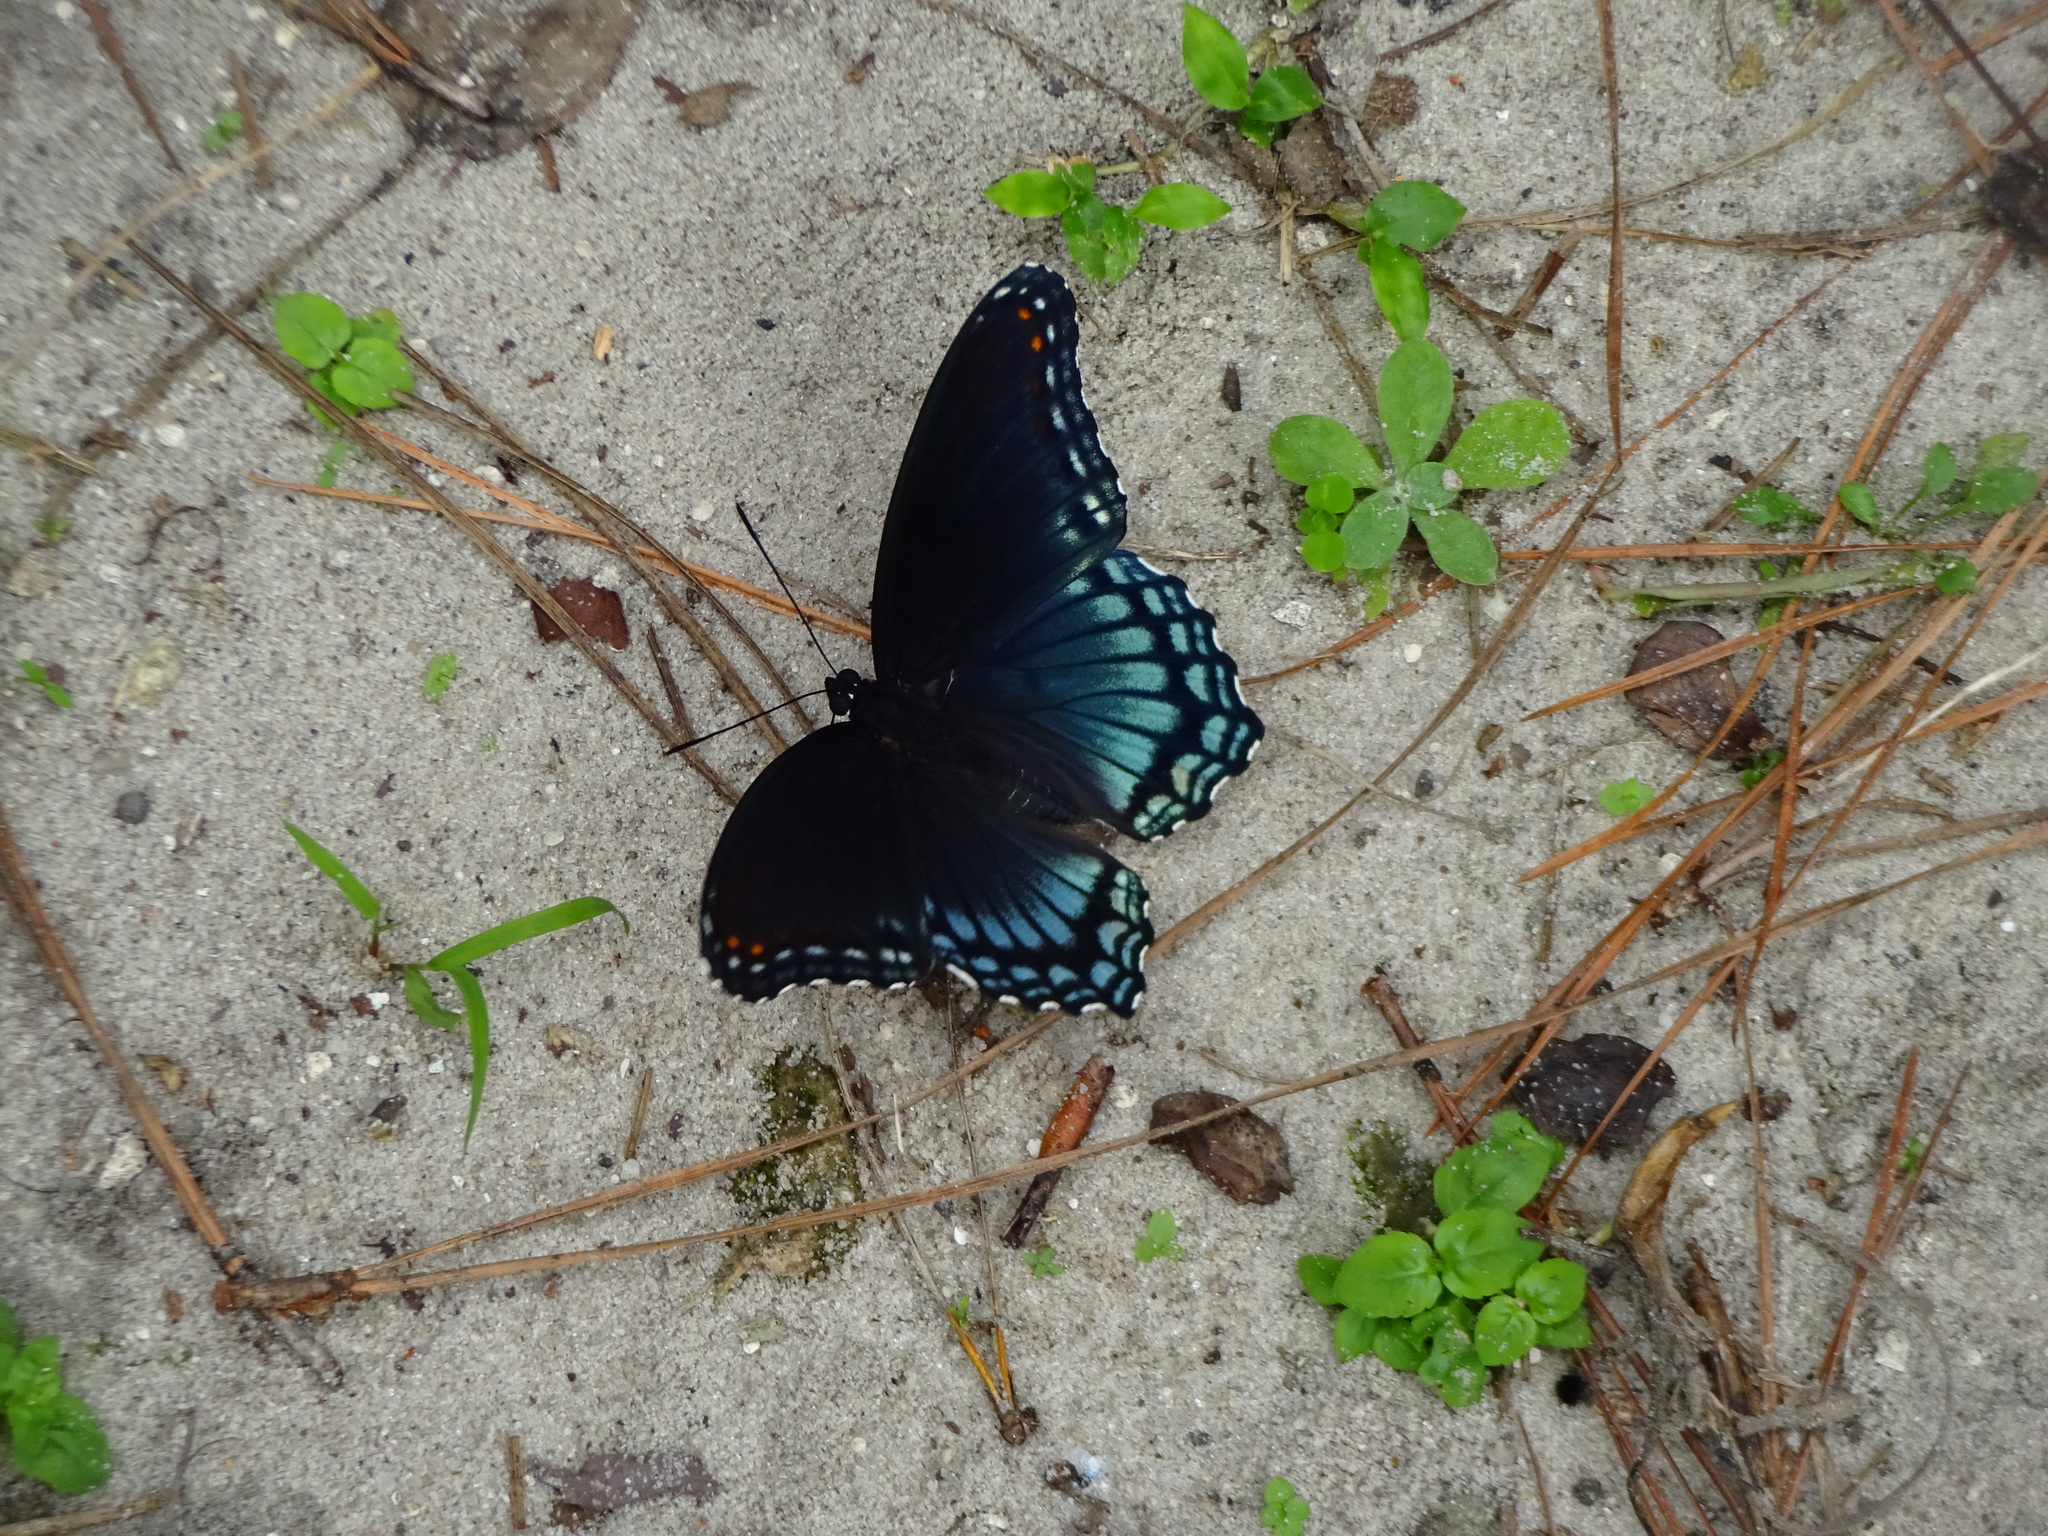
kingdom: Animalia
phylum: Arthropoda
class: Insecta
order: Lepidoptera
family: Nymphalidae
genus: Limenitis
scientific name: Limenitis arthemis
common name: Red-spotted admiral
